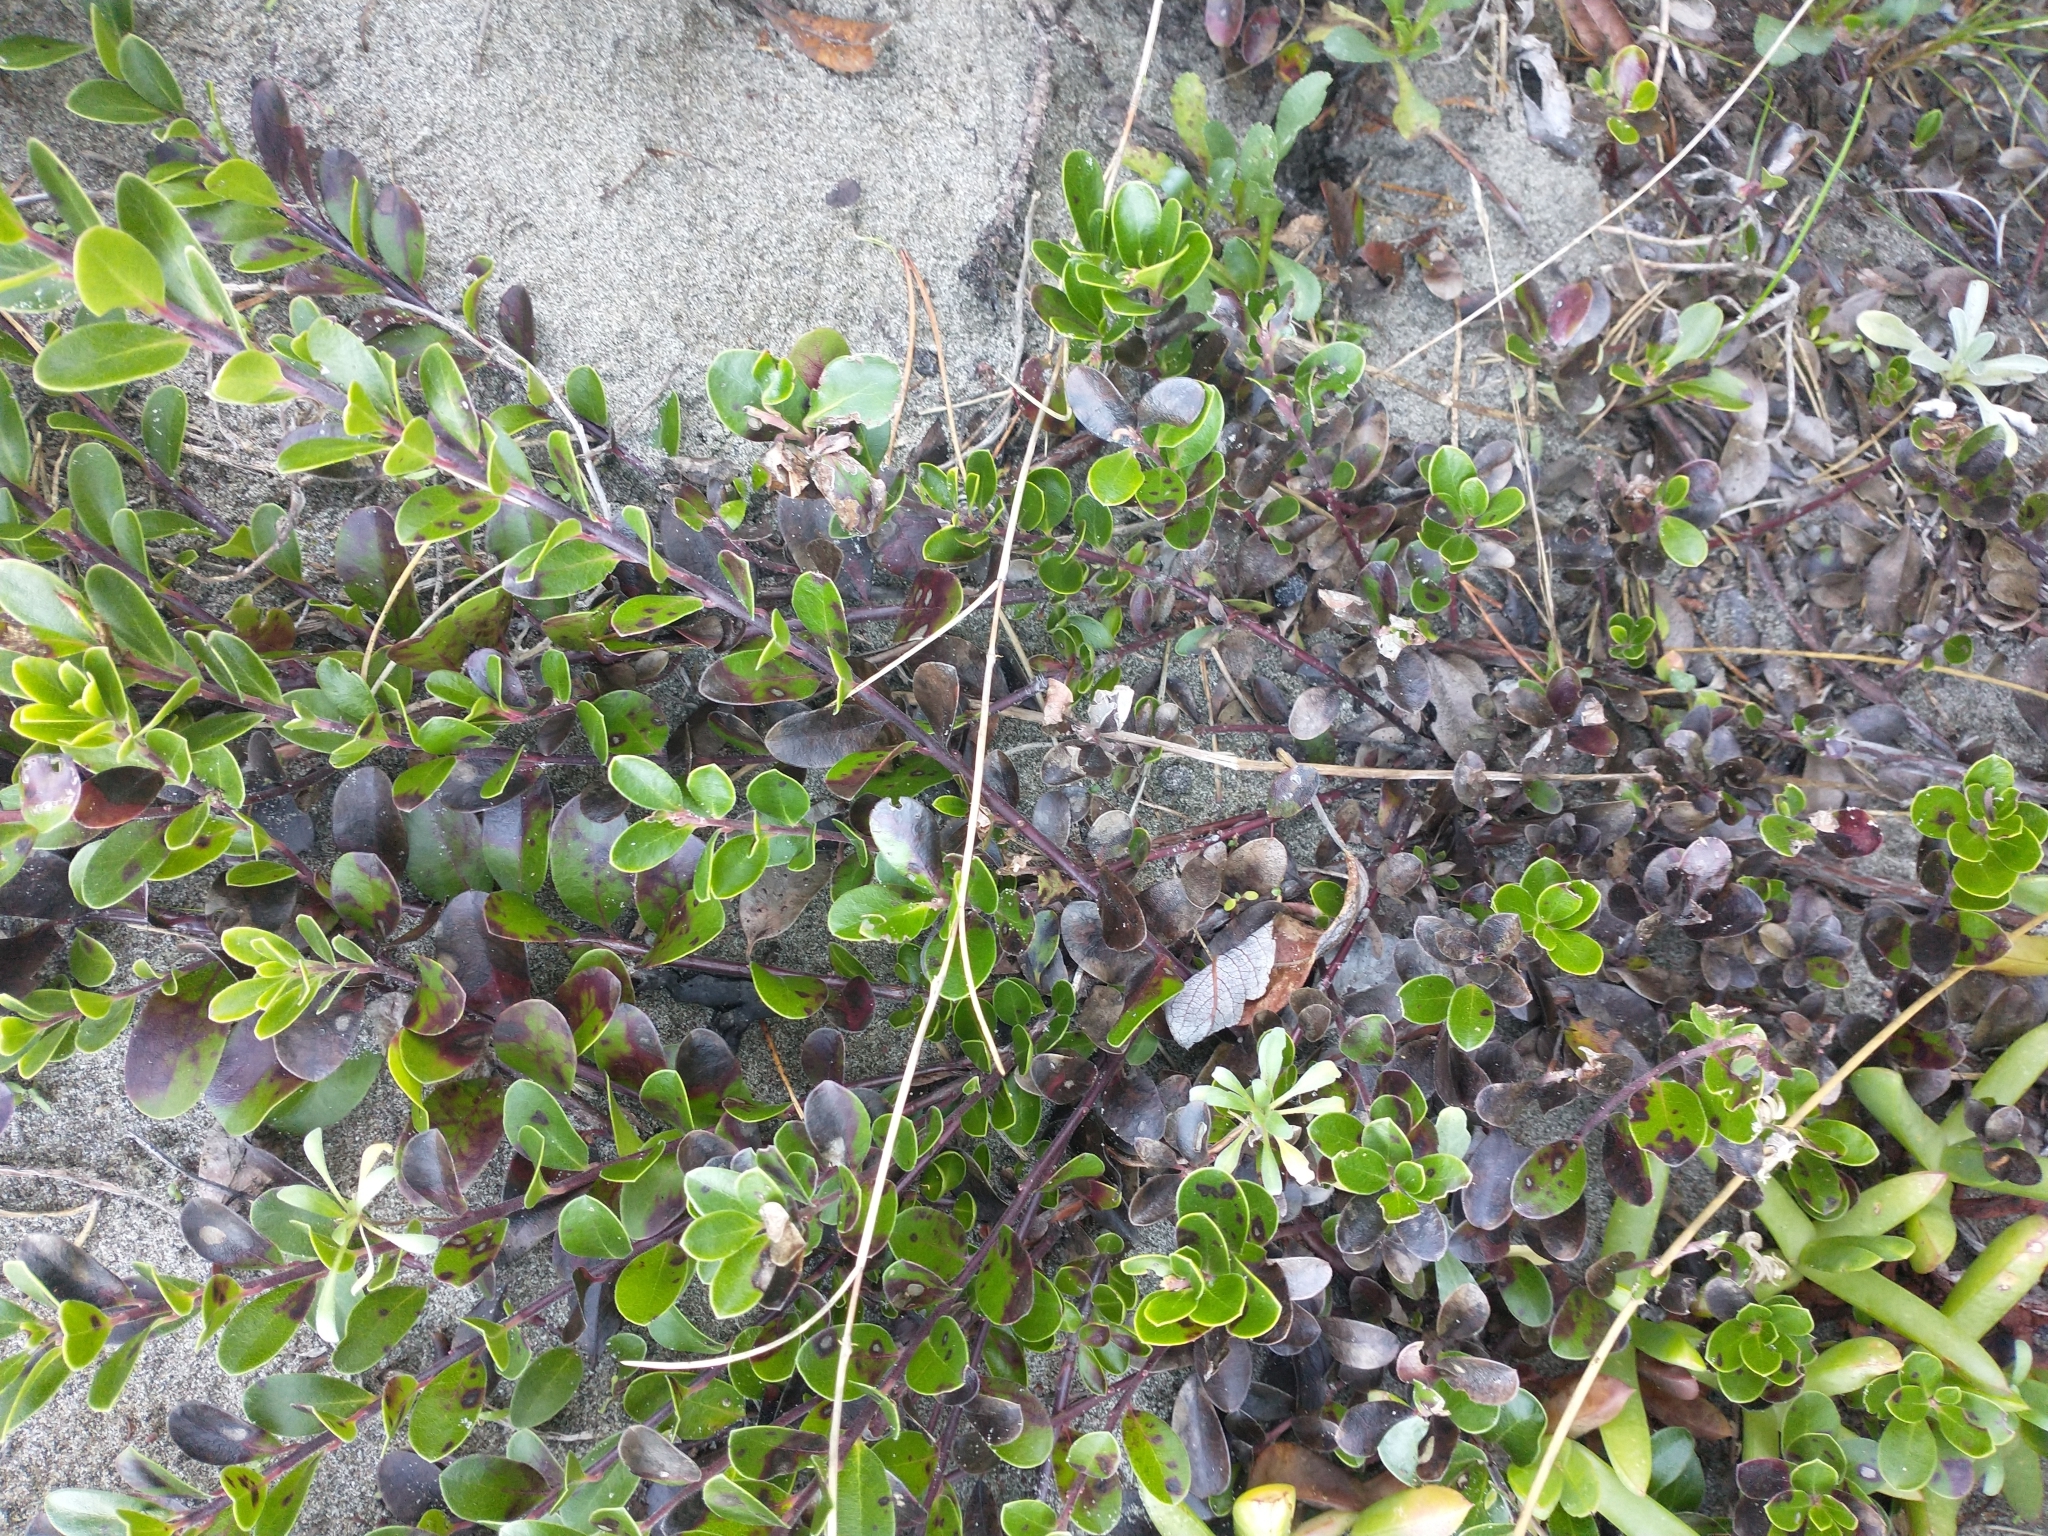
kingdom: Plantae
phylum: Tracheophyta
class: Magnoliopsida
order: Ericales
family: Ericaceae
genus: Arctostaphylos
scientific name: Arctostaphylos uva-ursi
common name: Bearberry
